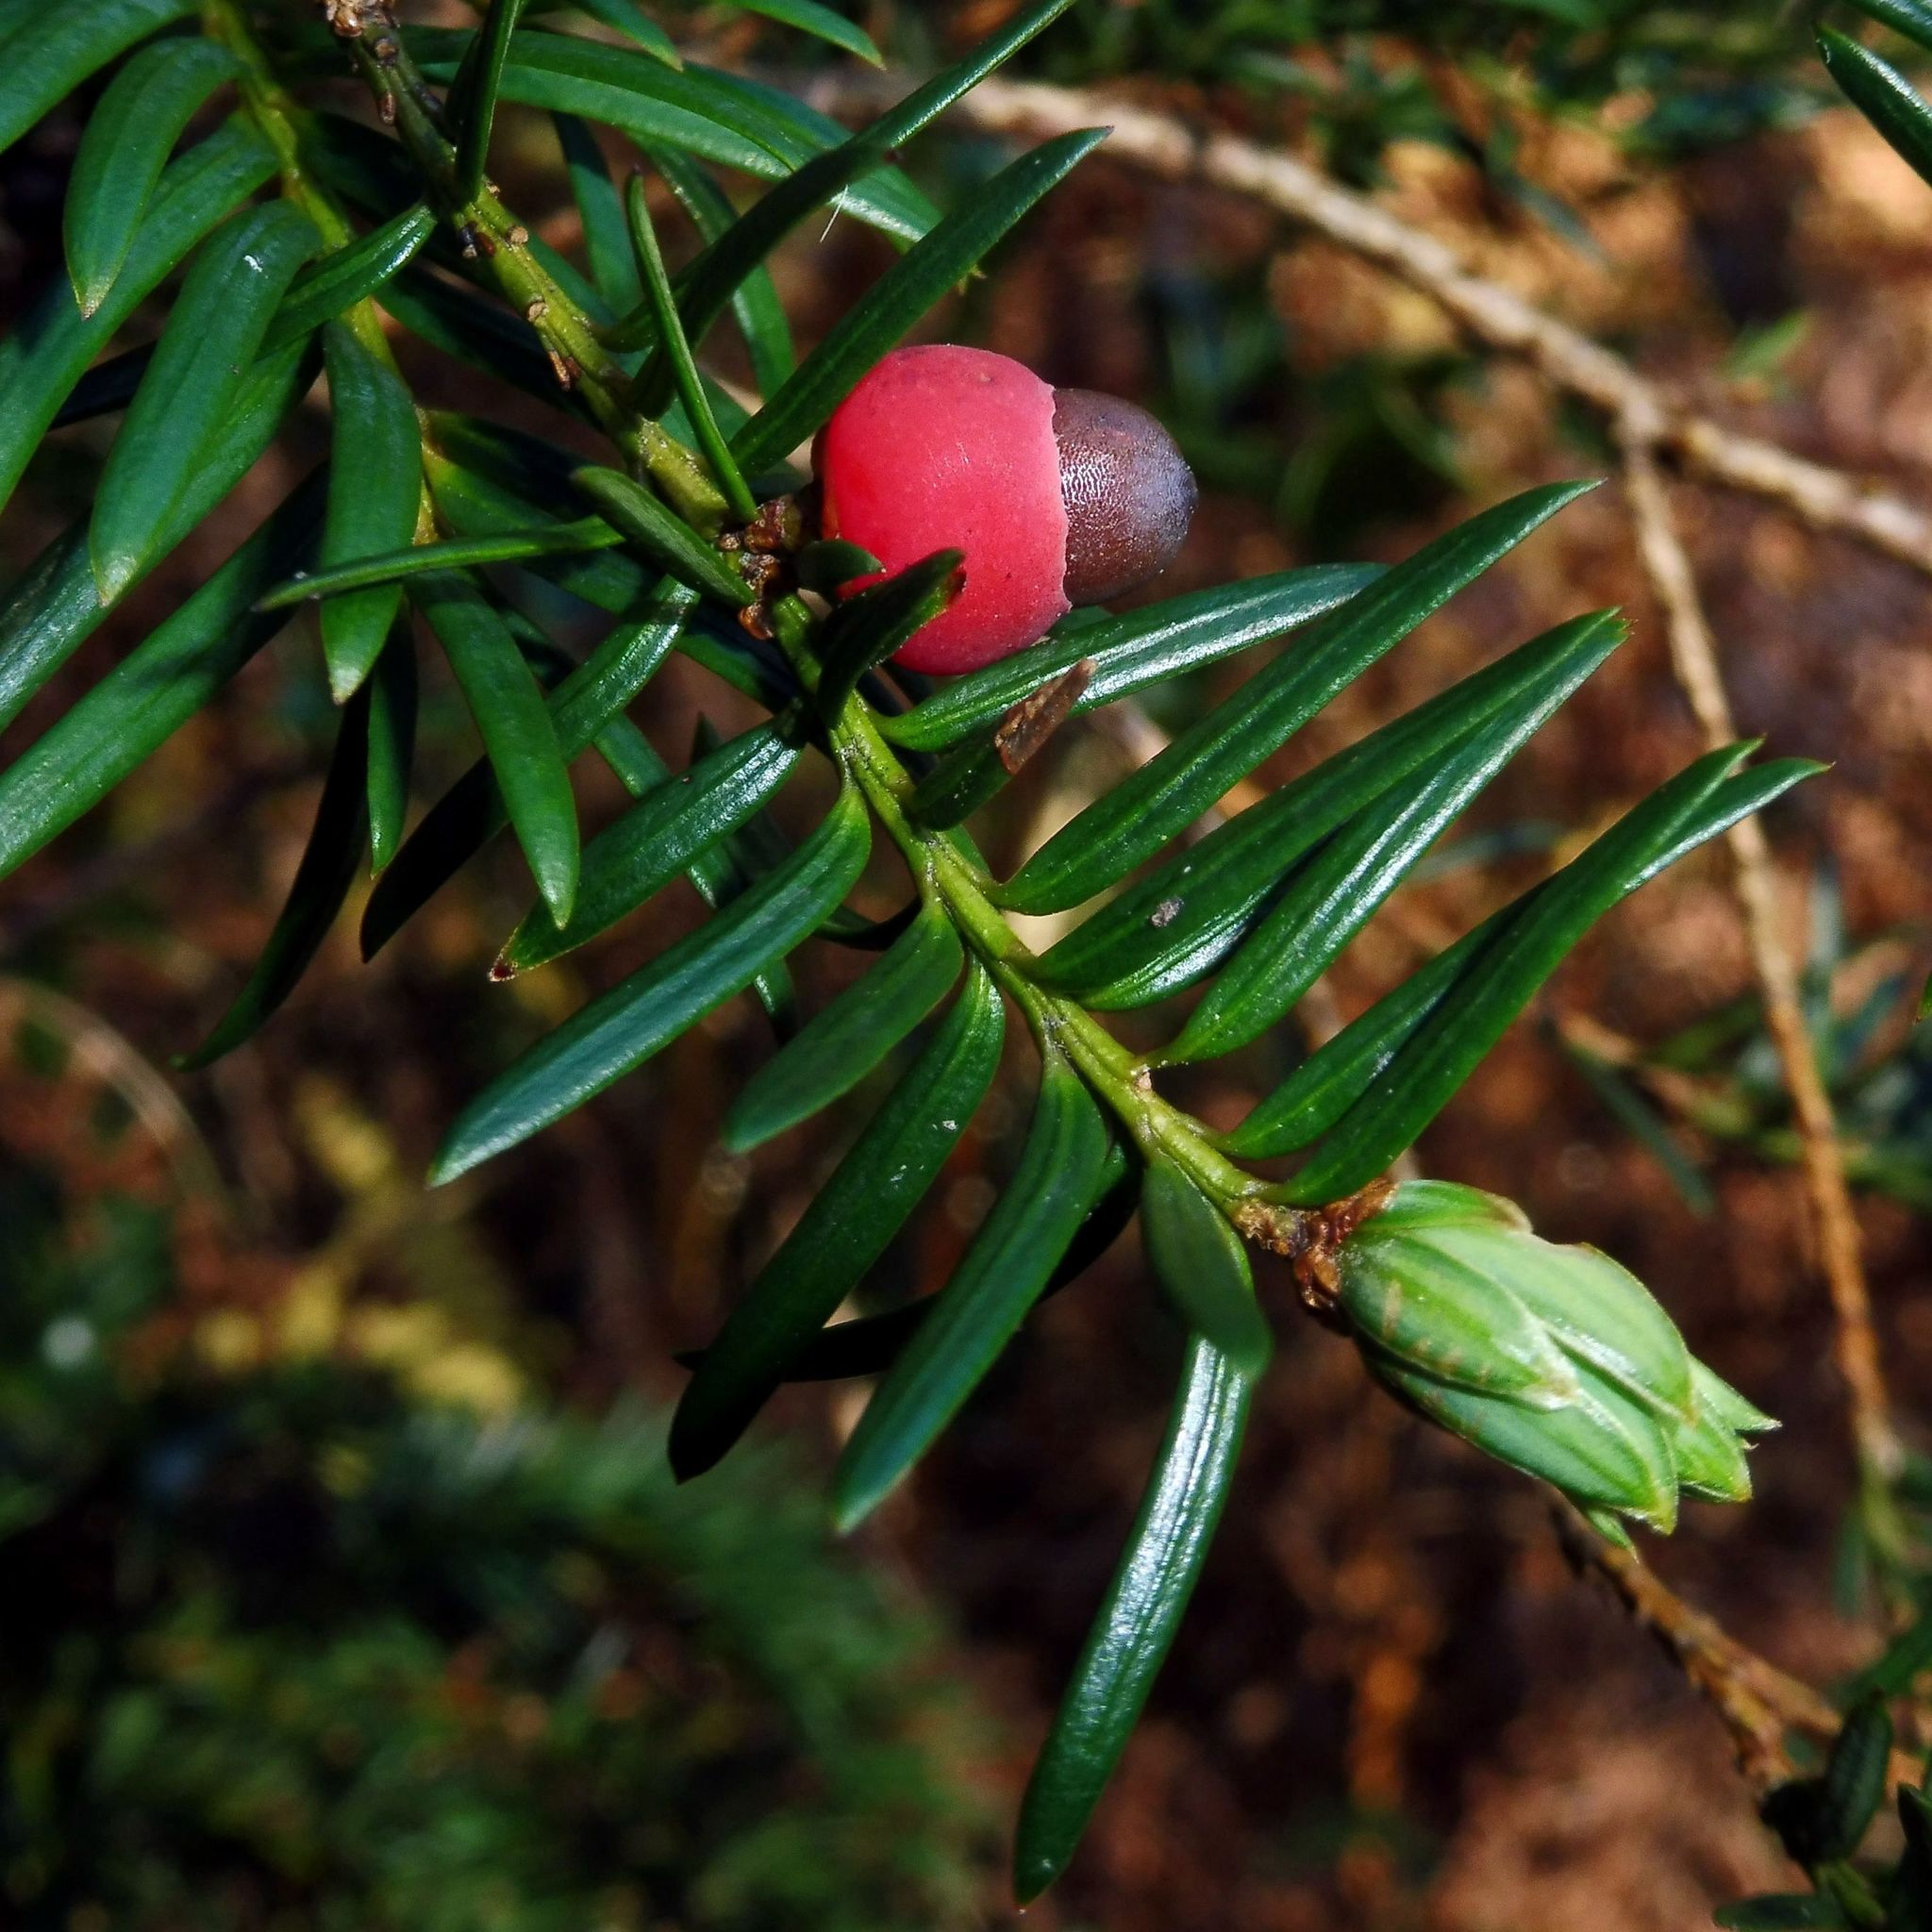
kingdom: Plantae
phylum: Tracheophyta
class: Pinopsida
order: Pinales
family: Taxaceae
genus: Taxus
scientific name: Taxus baccata
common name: Yew
